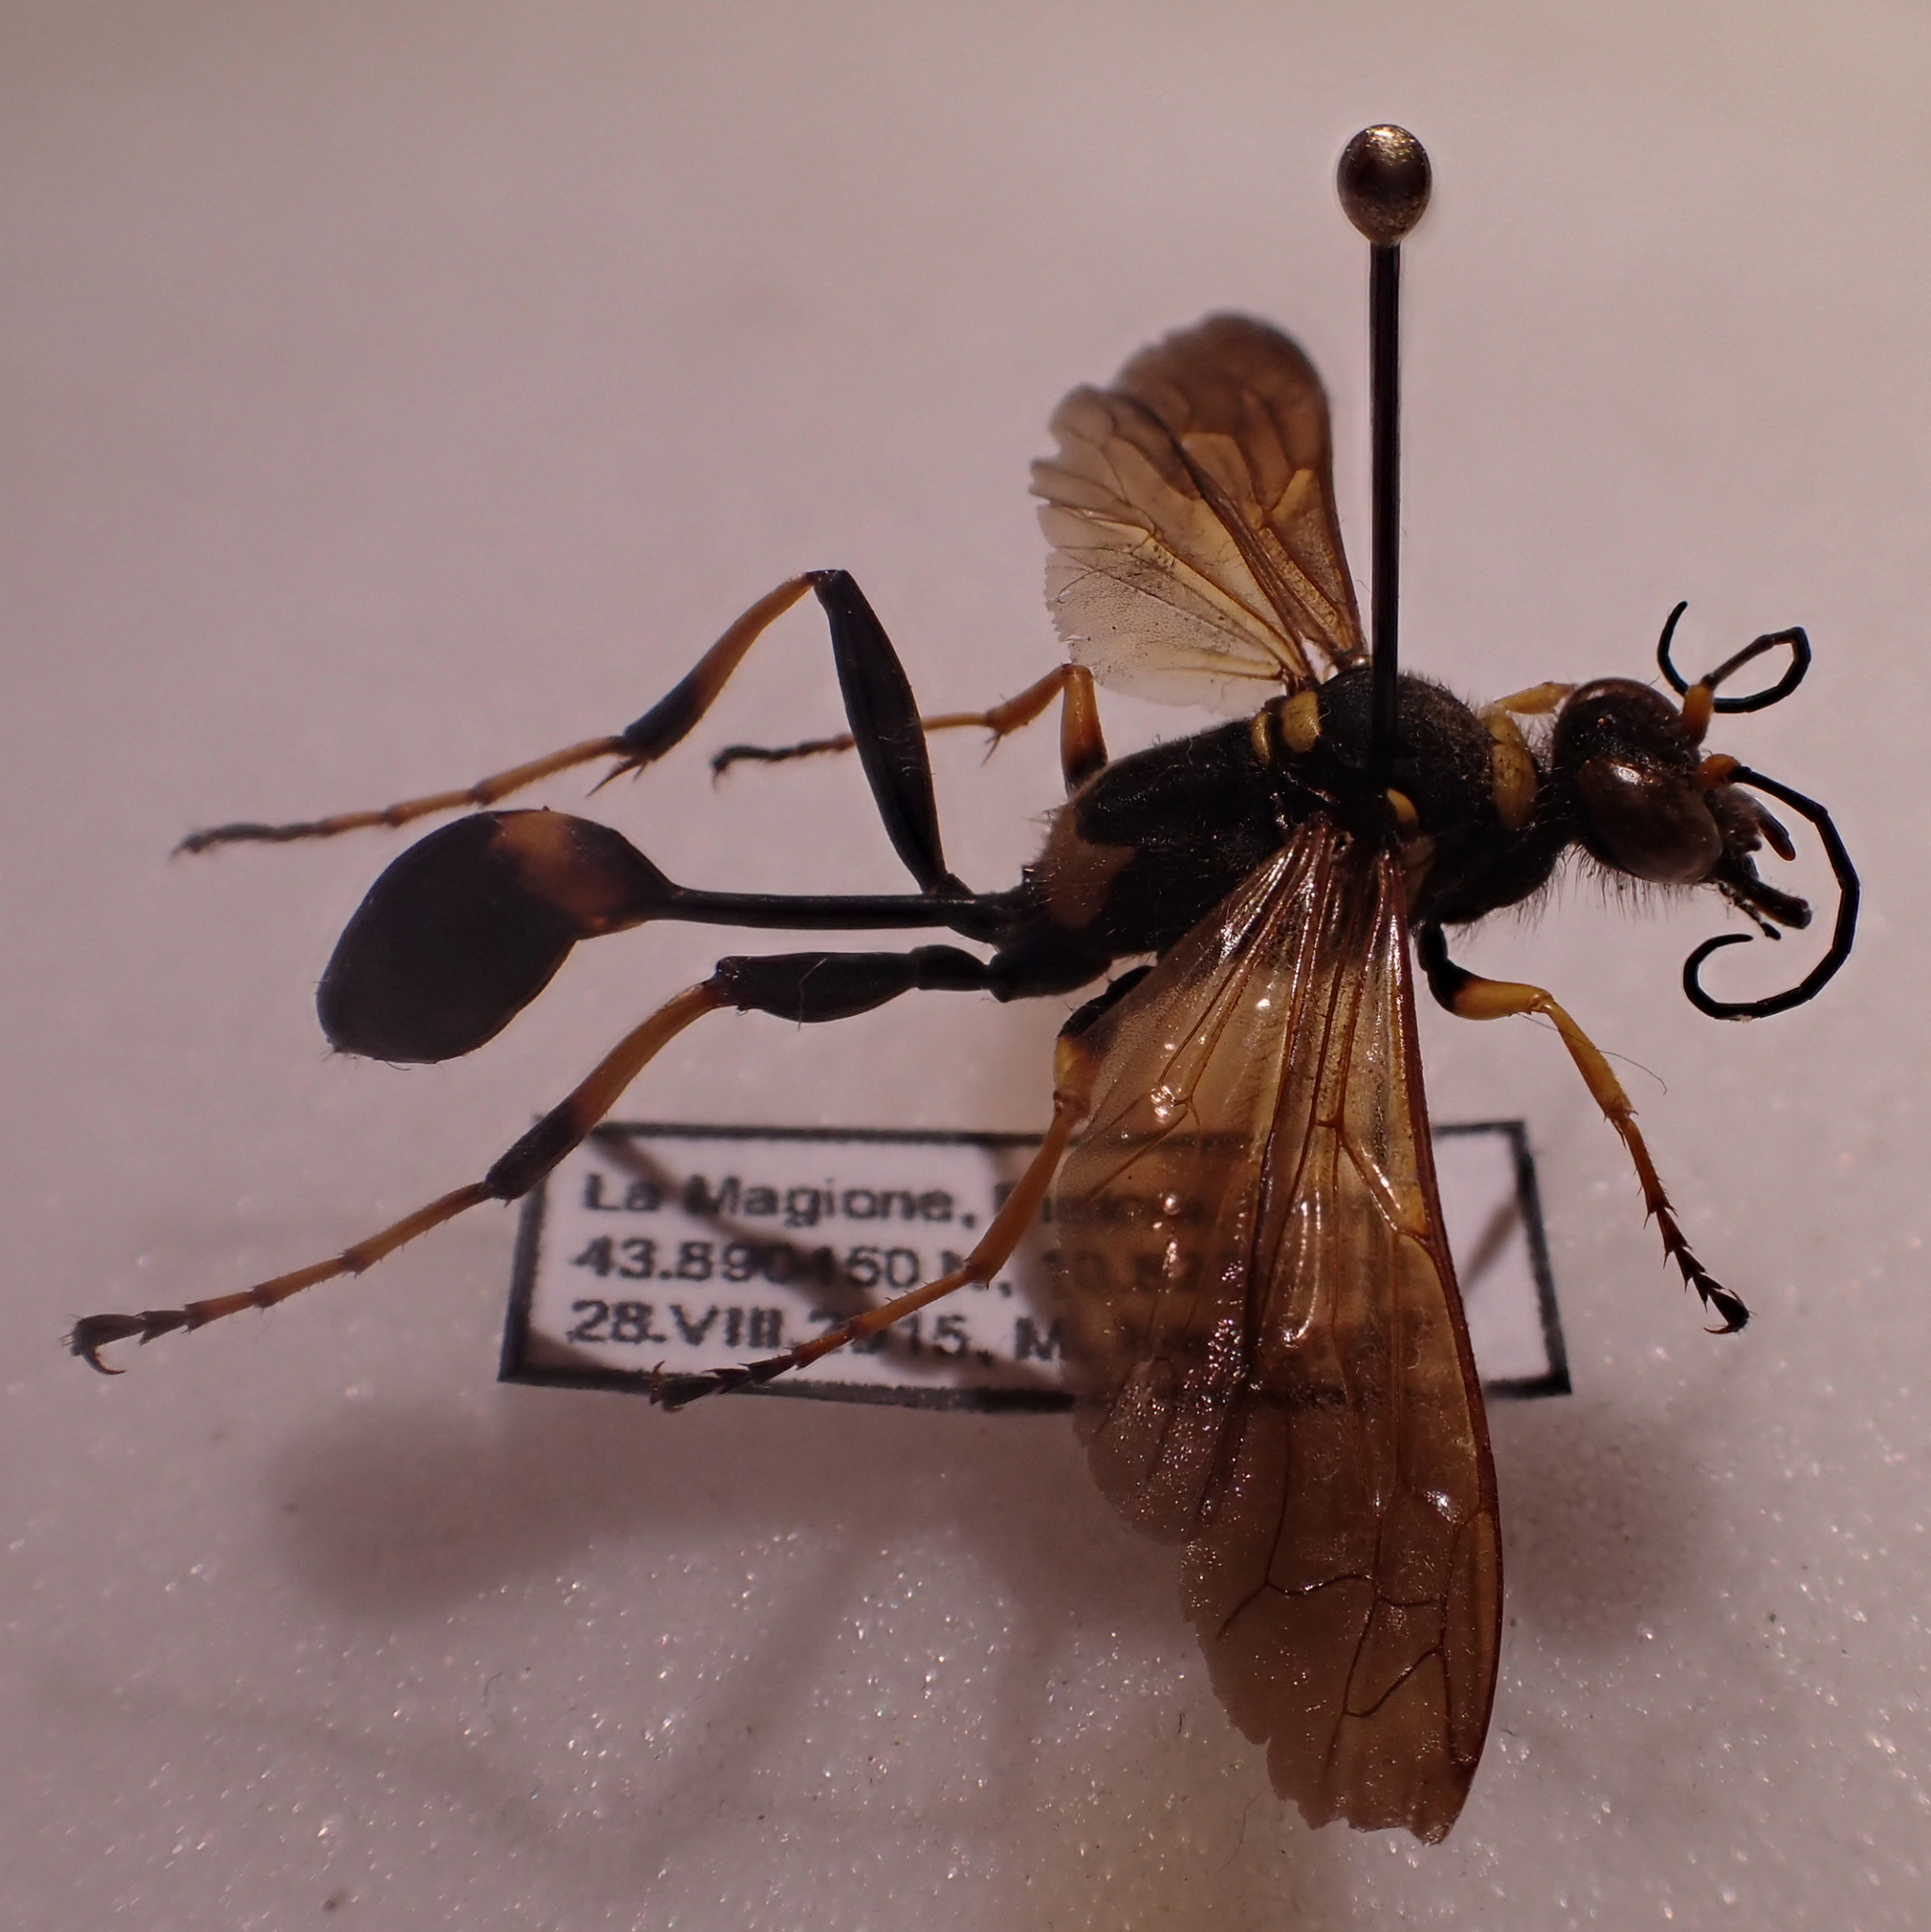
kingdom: Animalia
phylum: Arthropoda
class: Insecta
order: Hymenoptera
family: Sphecidae
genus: Sceliphron
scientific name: Sceliphron caementarium
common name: Mud dauber
